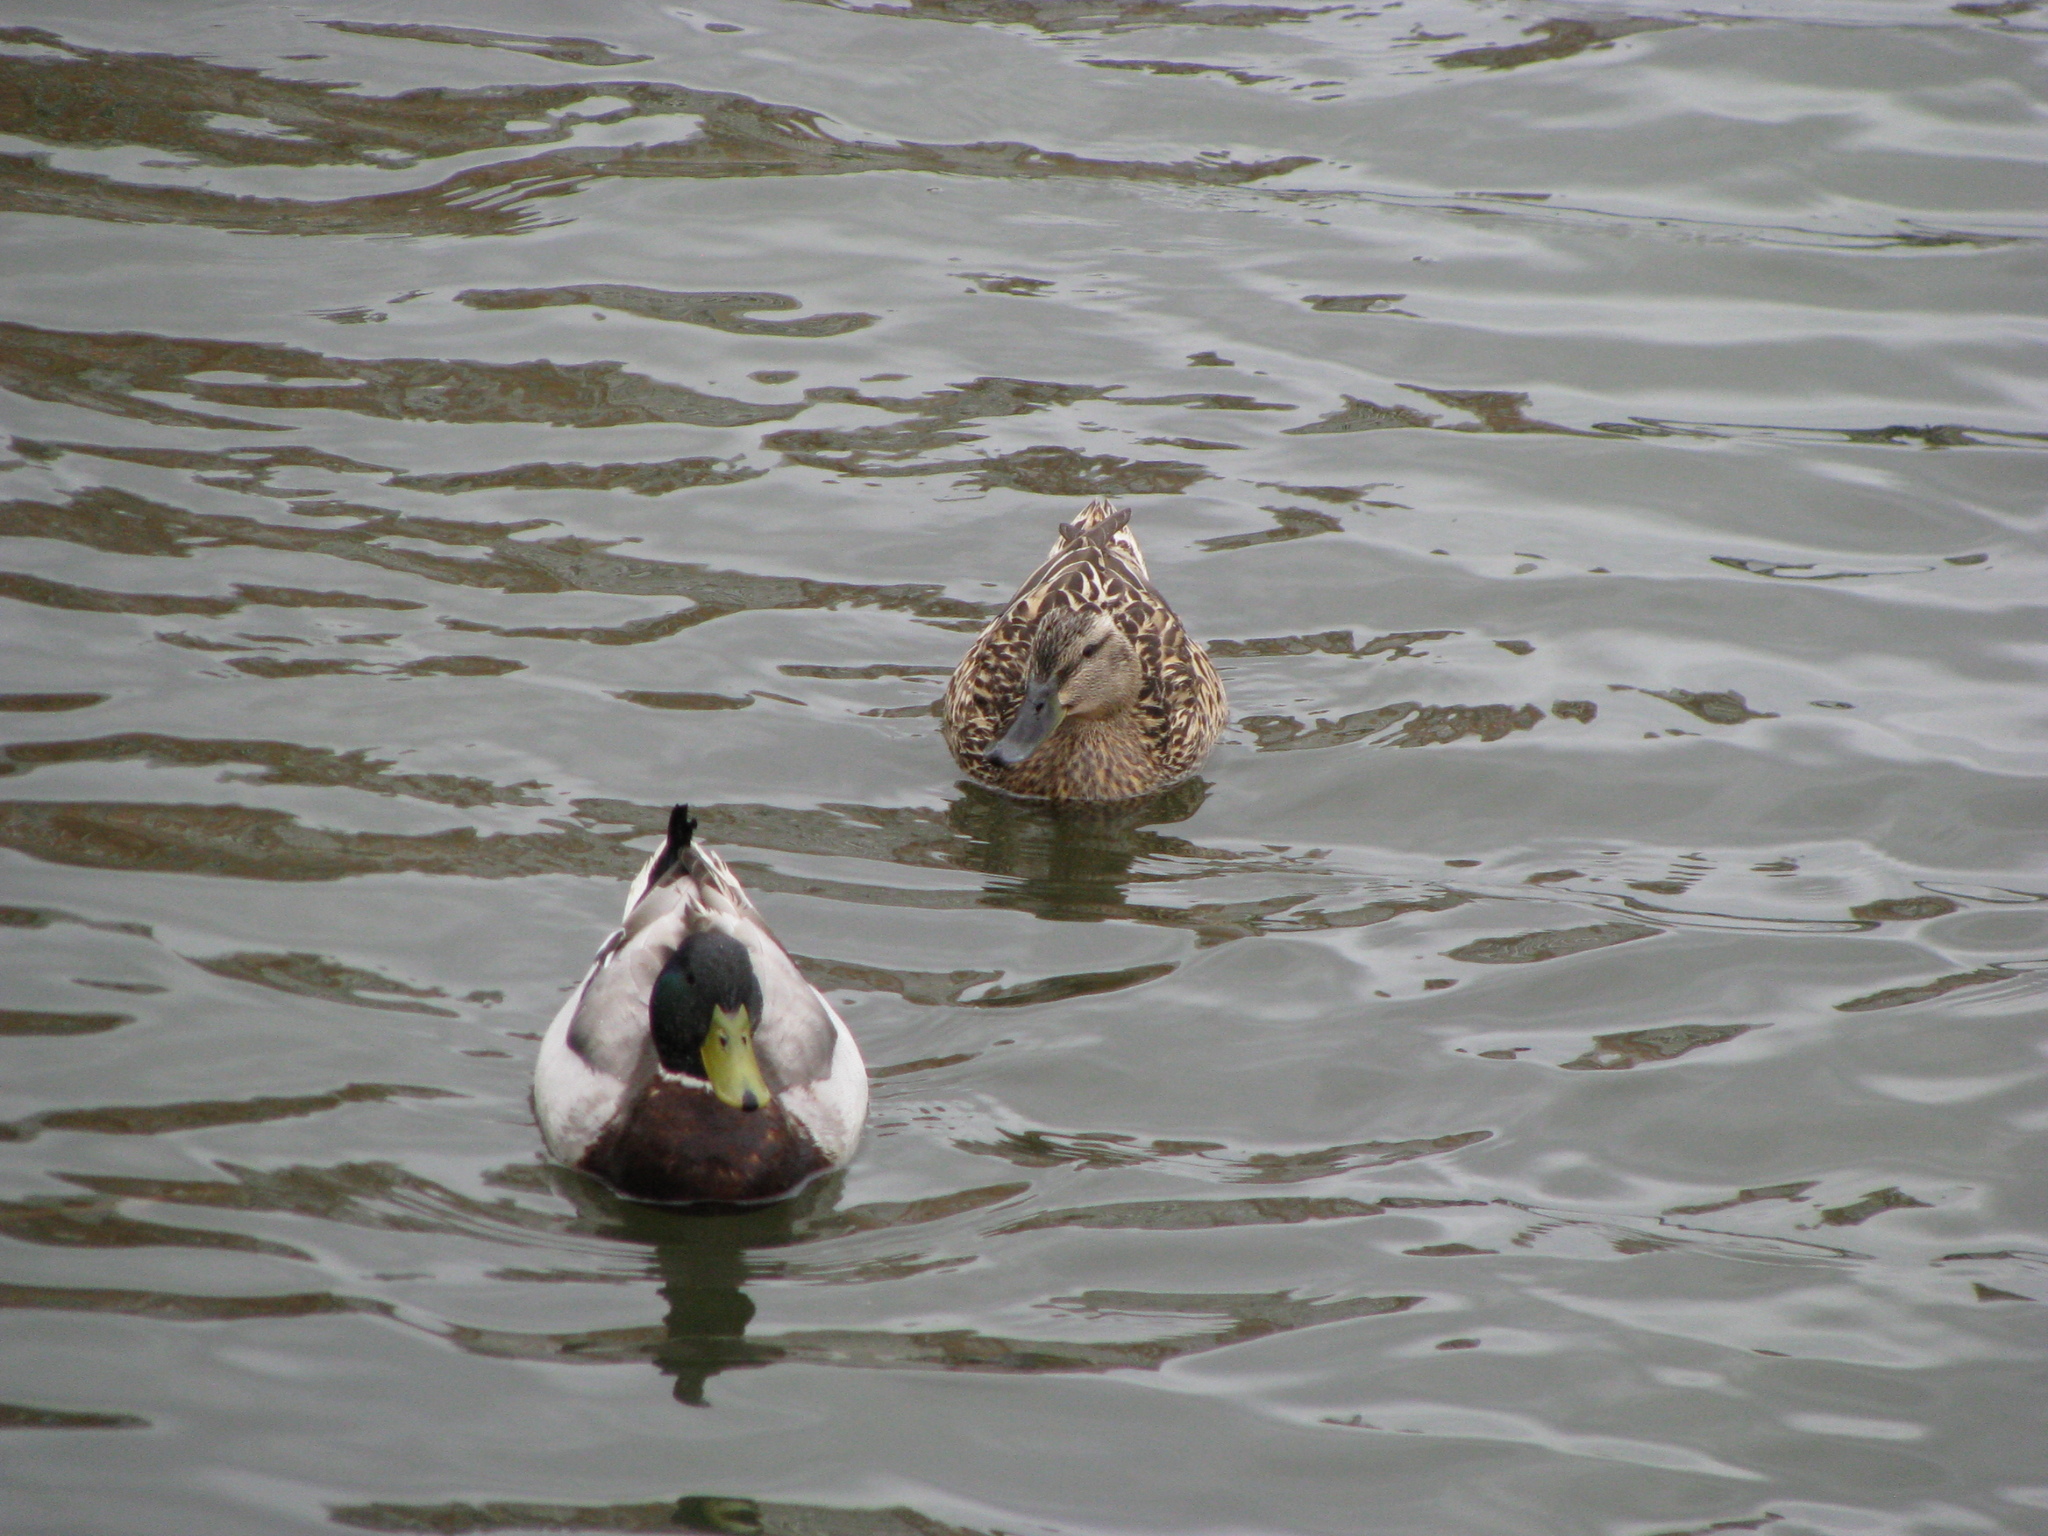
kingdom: Animalia
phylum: Chordata
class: Aves
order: Anseriformes
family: Anatidae
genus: Anas
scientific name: Anas platyrhynchos
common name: Mallard
